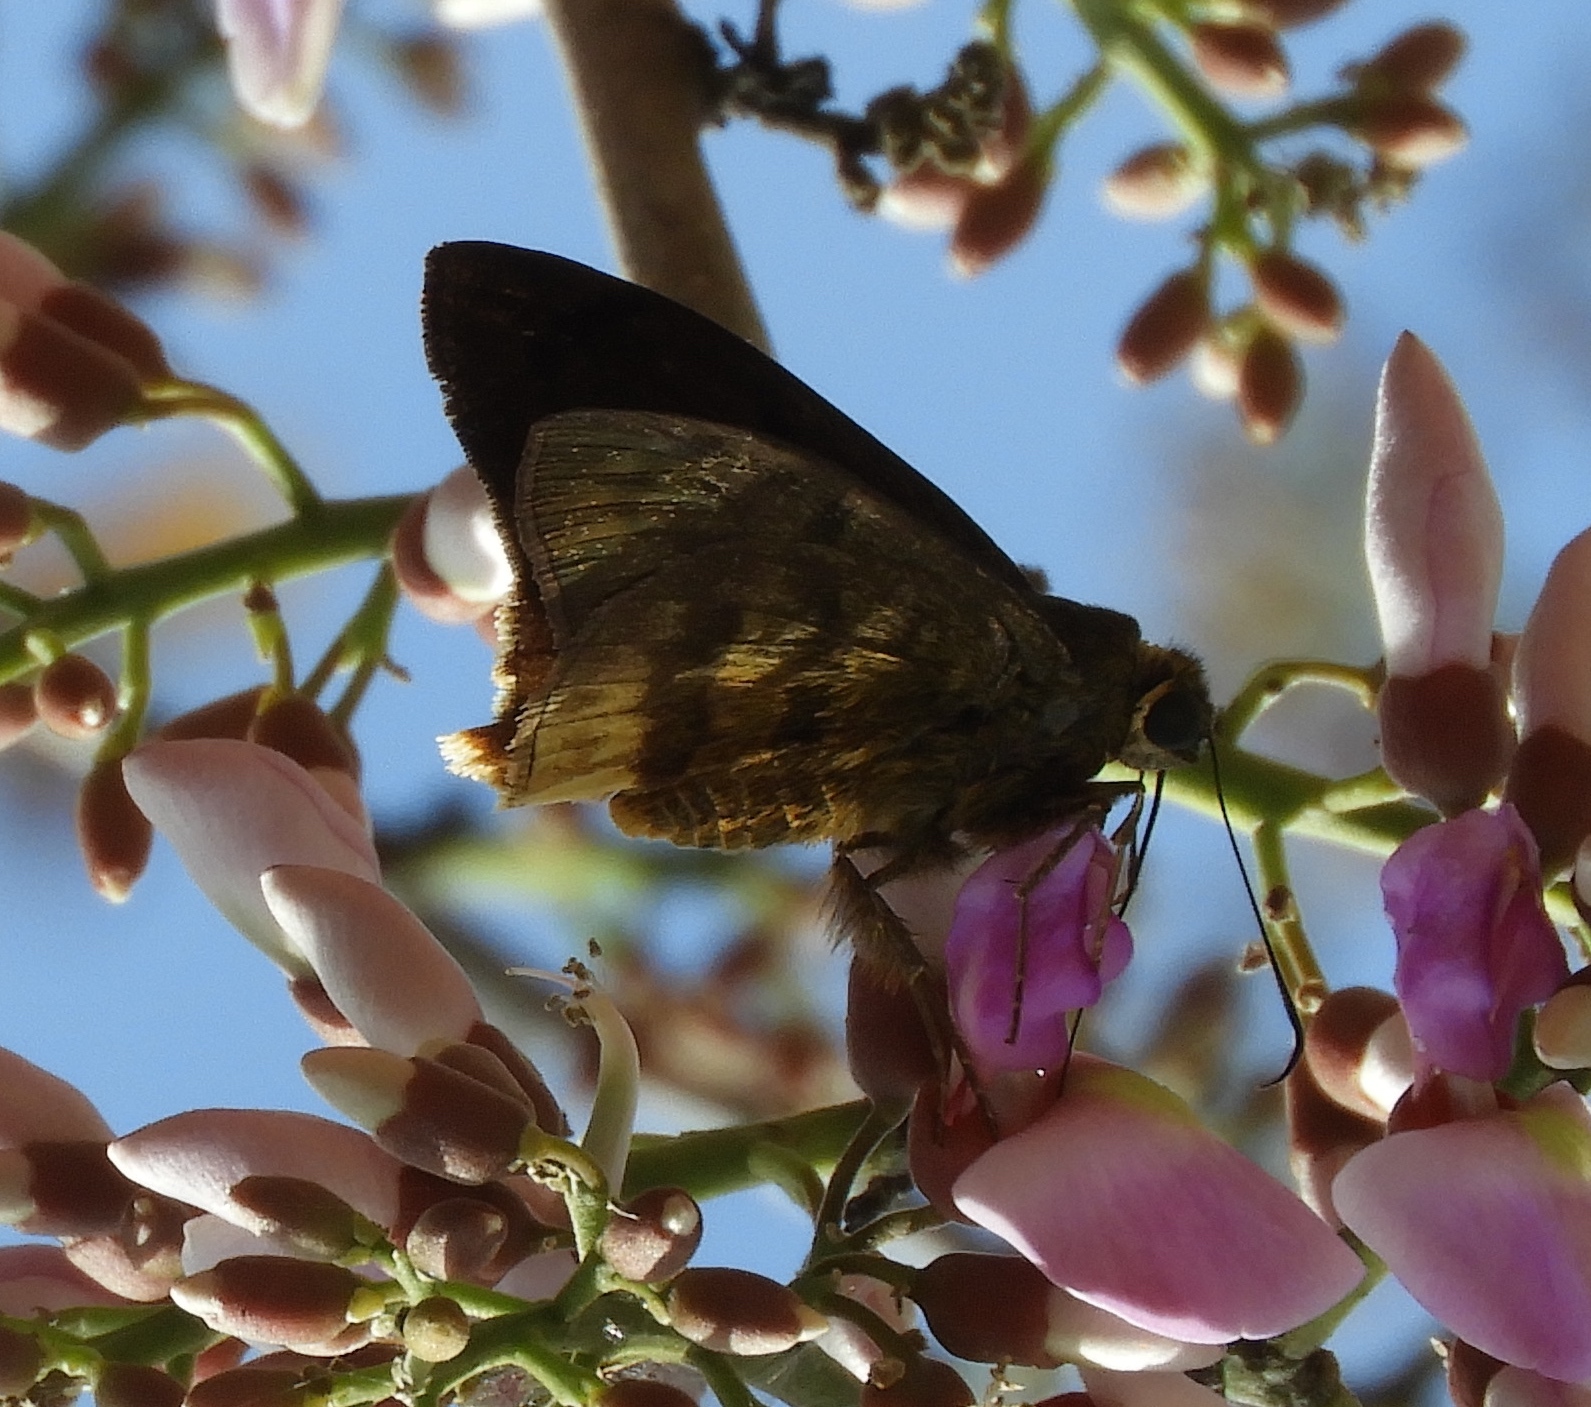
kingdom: Animalia
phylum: Arthropoda
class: Insecta
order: Lepidoptera
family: Hesperiidae
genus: Astraptes
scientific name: Astraptes anaphus
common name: Yellow-tipped flasher
